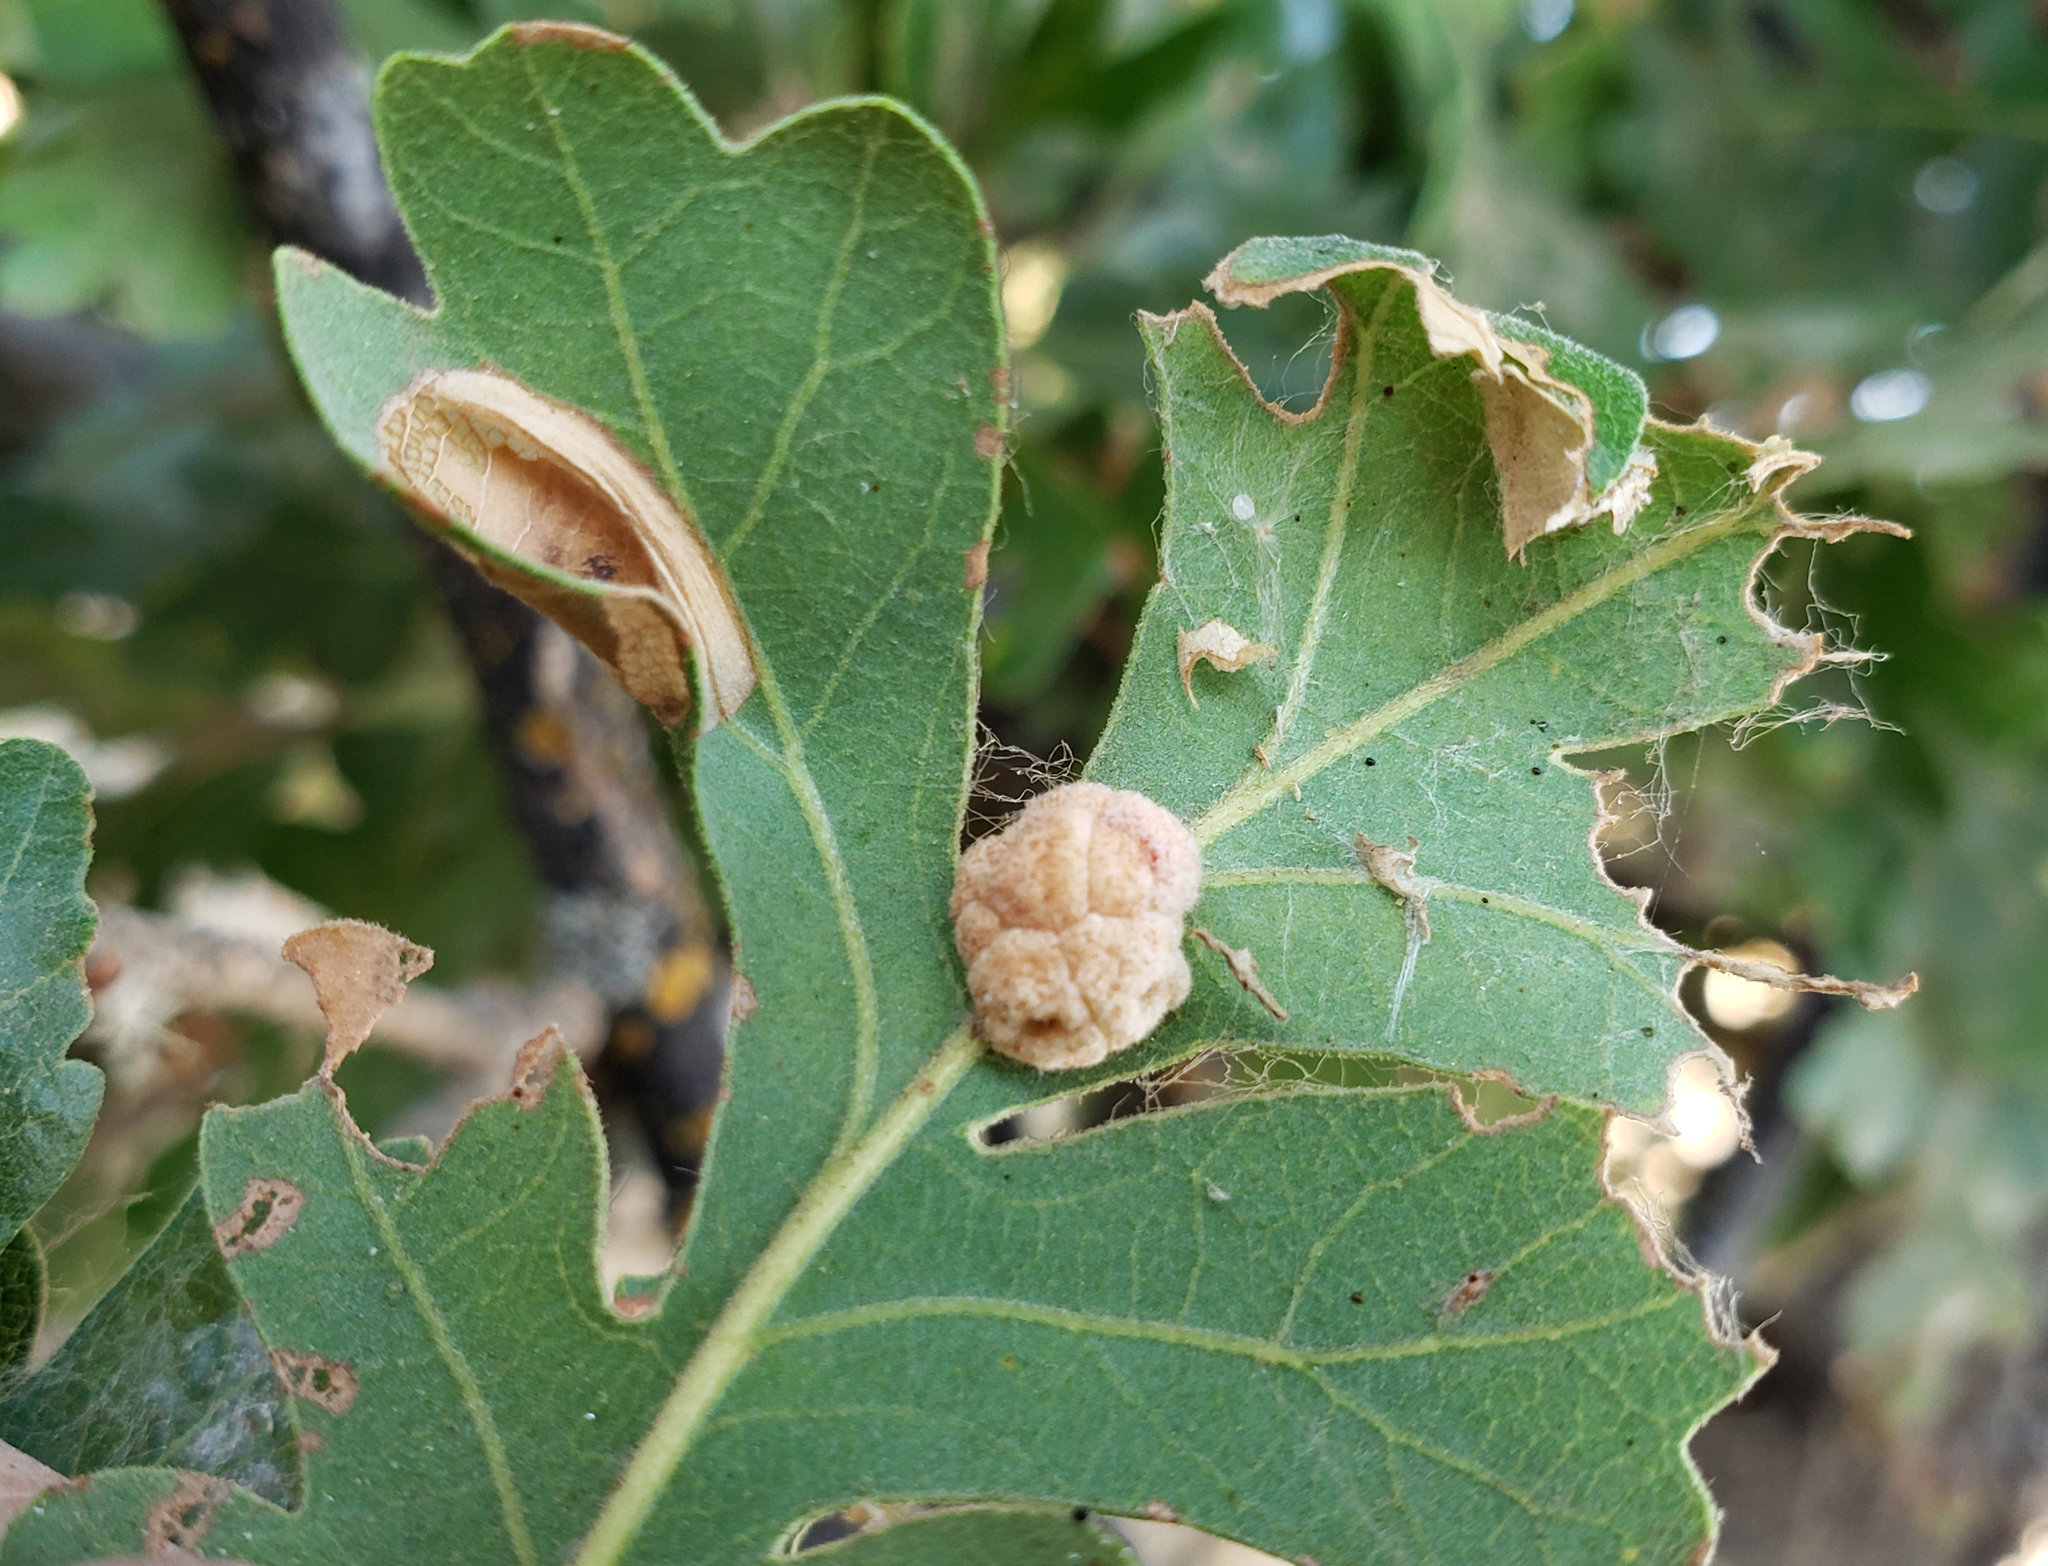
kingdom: Animalia
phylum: Arthropoda
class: Insecta
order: Hymenoptera
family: Cynipidae
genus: Andricus
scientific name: Andricus
